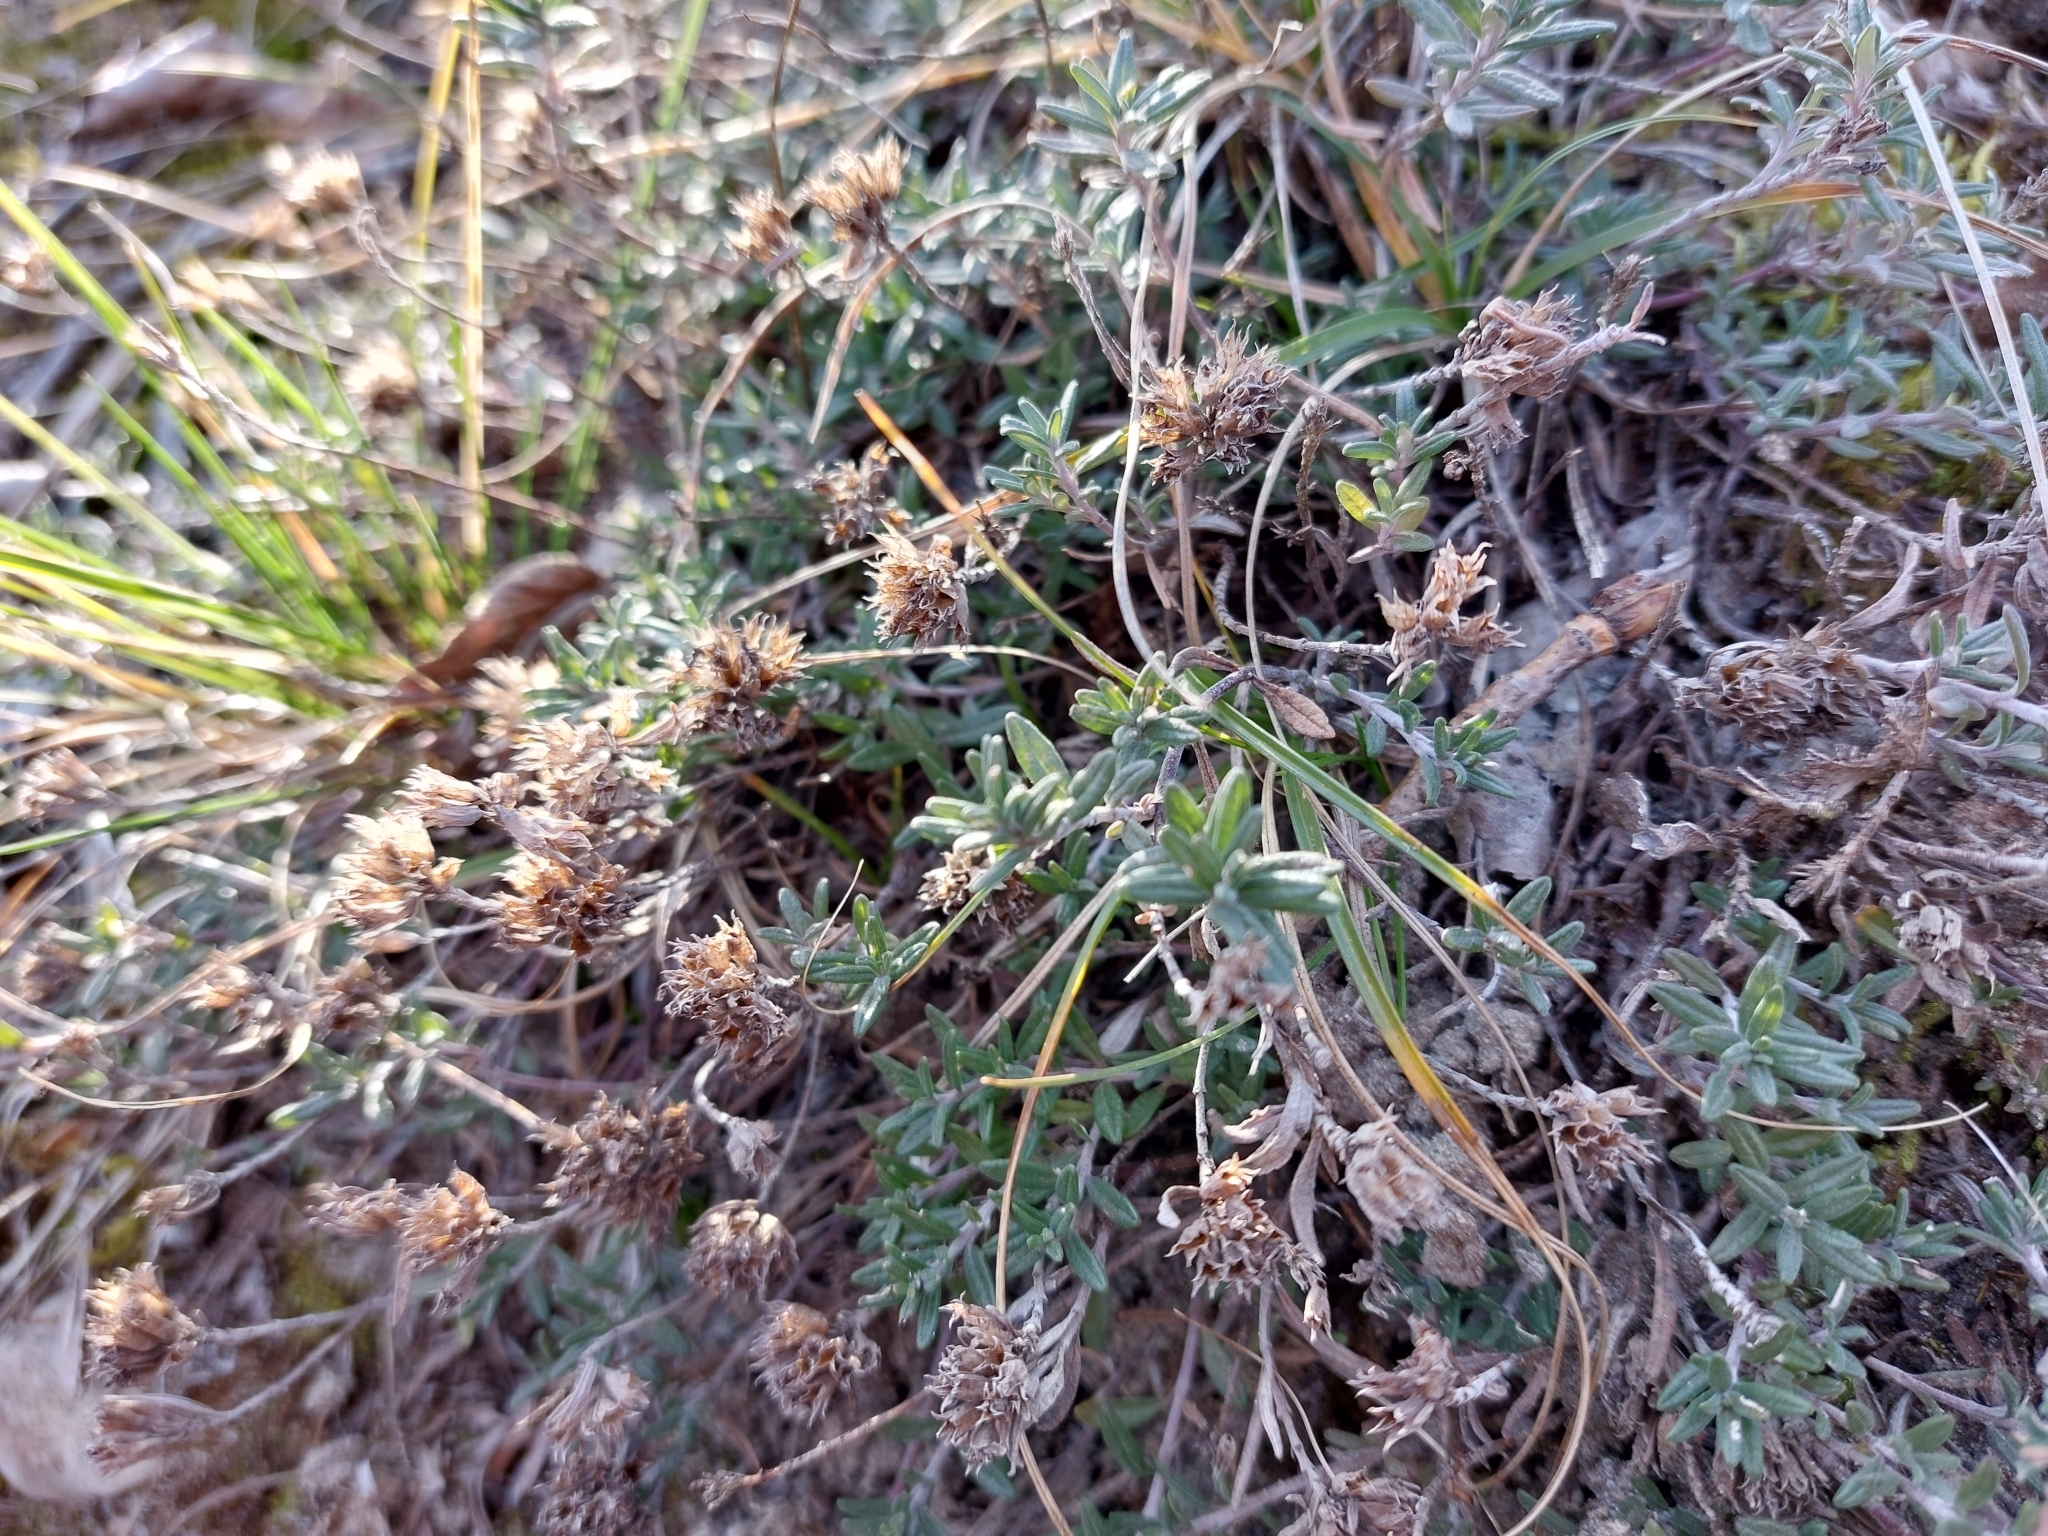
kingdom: Plantae
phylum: Tracheophyta
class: Magnoliopsida
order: Lamiales
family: Lamiaceae
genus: Teucrium
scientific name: Teucrium montanum
